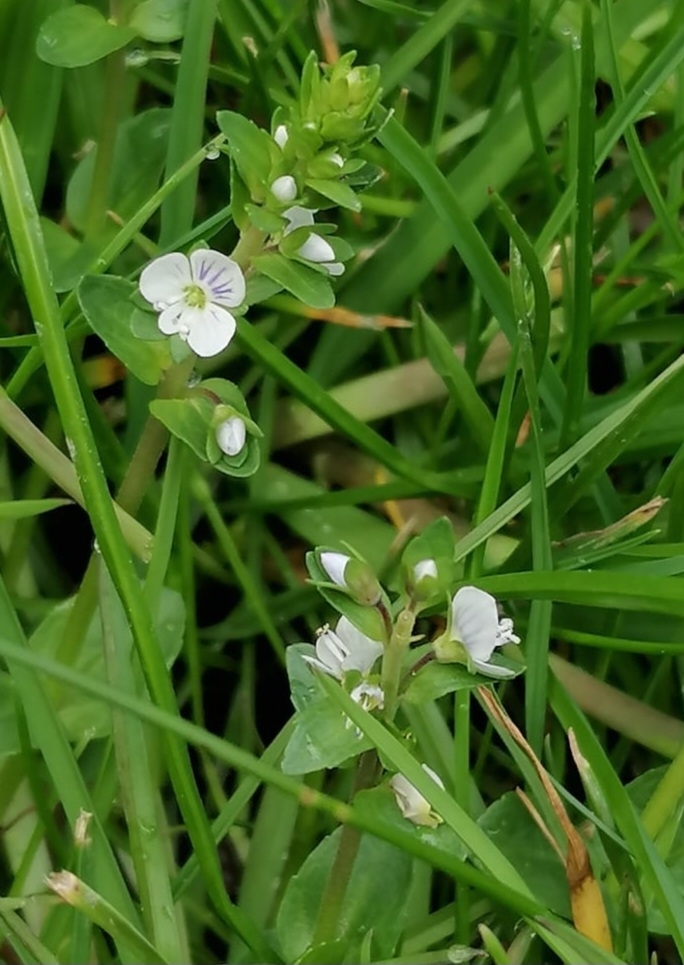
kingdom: Plantae
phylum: Tracheophyta
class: Magnoliopsida
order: Lamiales
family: Plantaginaceae
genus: Veronica
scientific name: Veronica serpyllifolia
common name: Thyme-leaved speedwell
